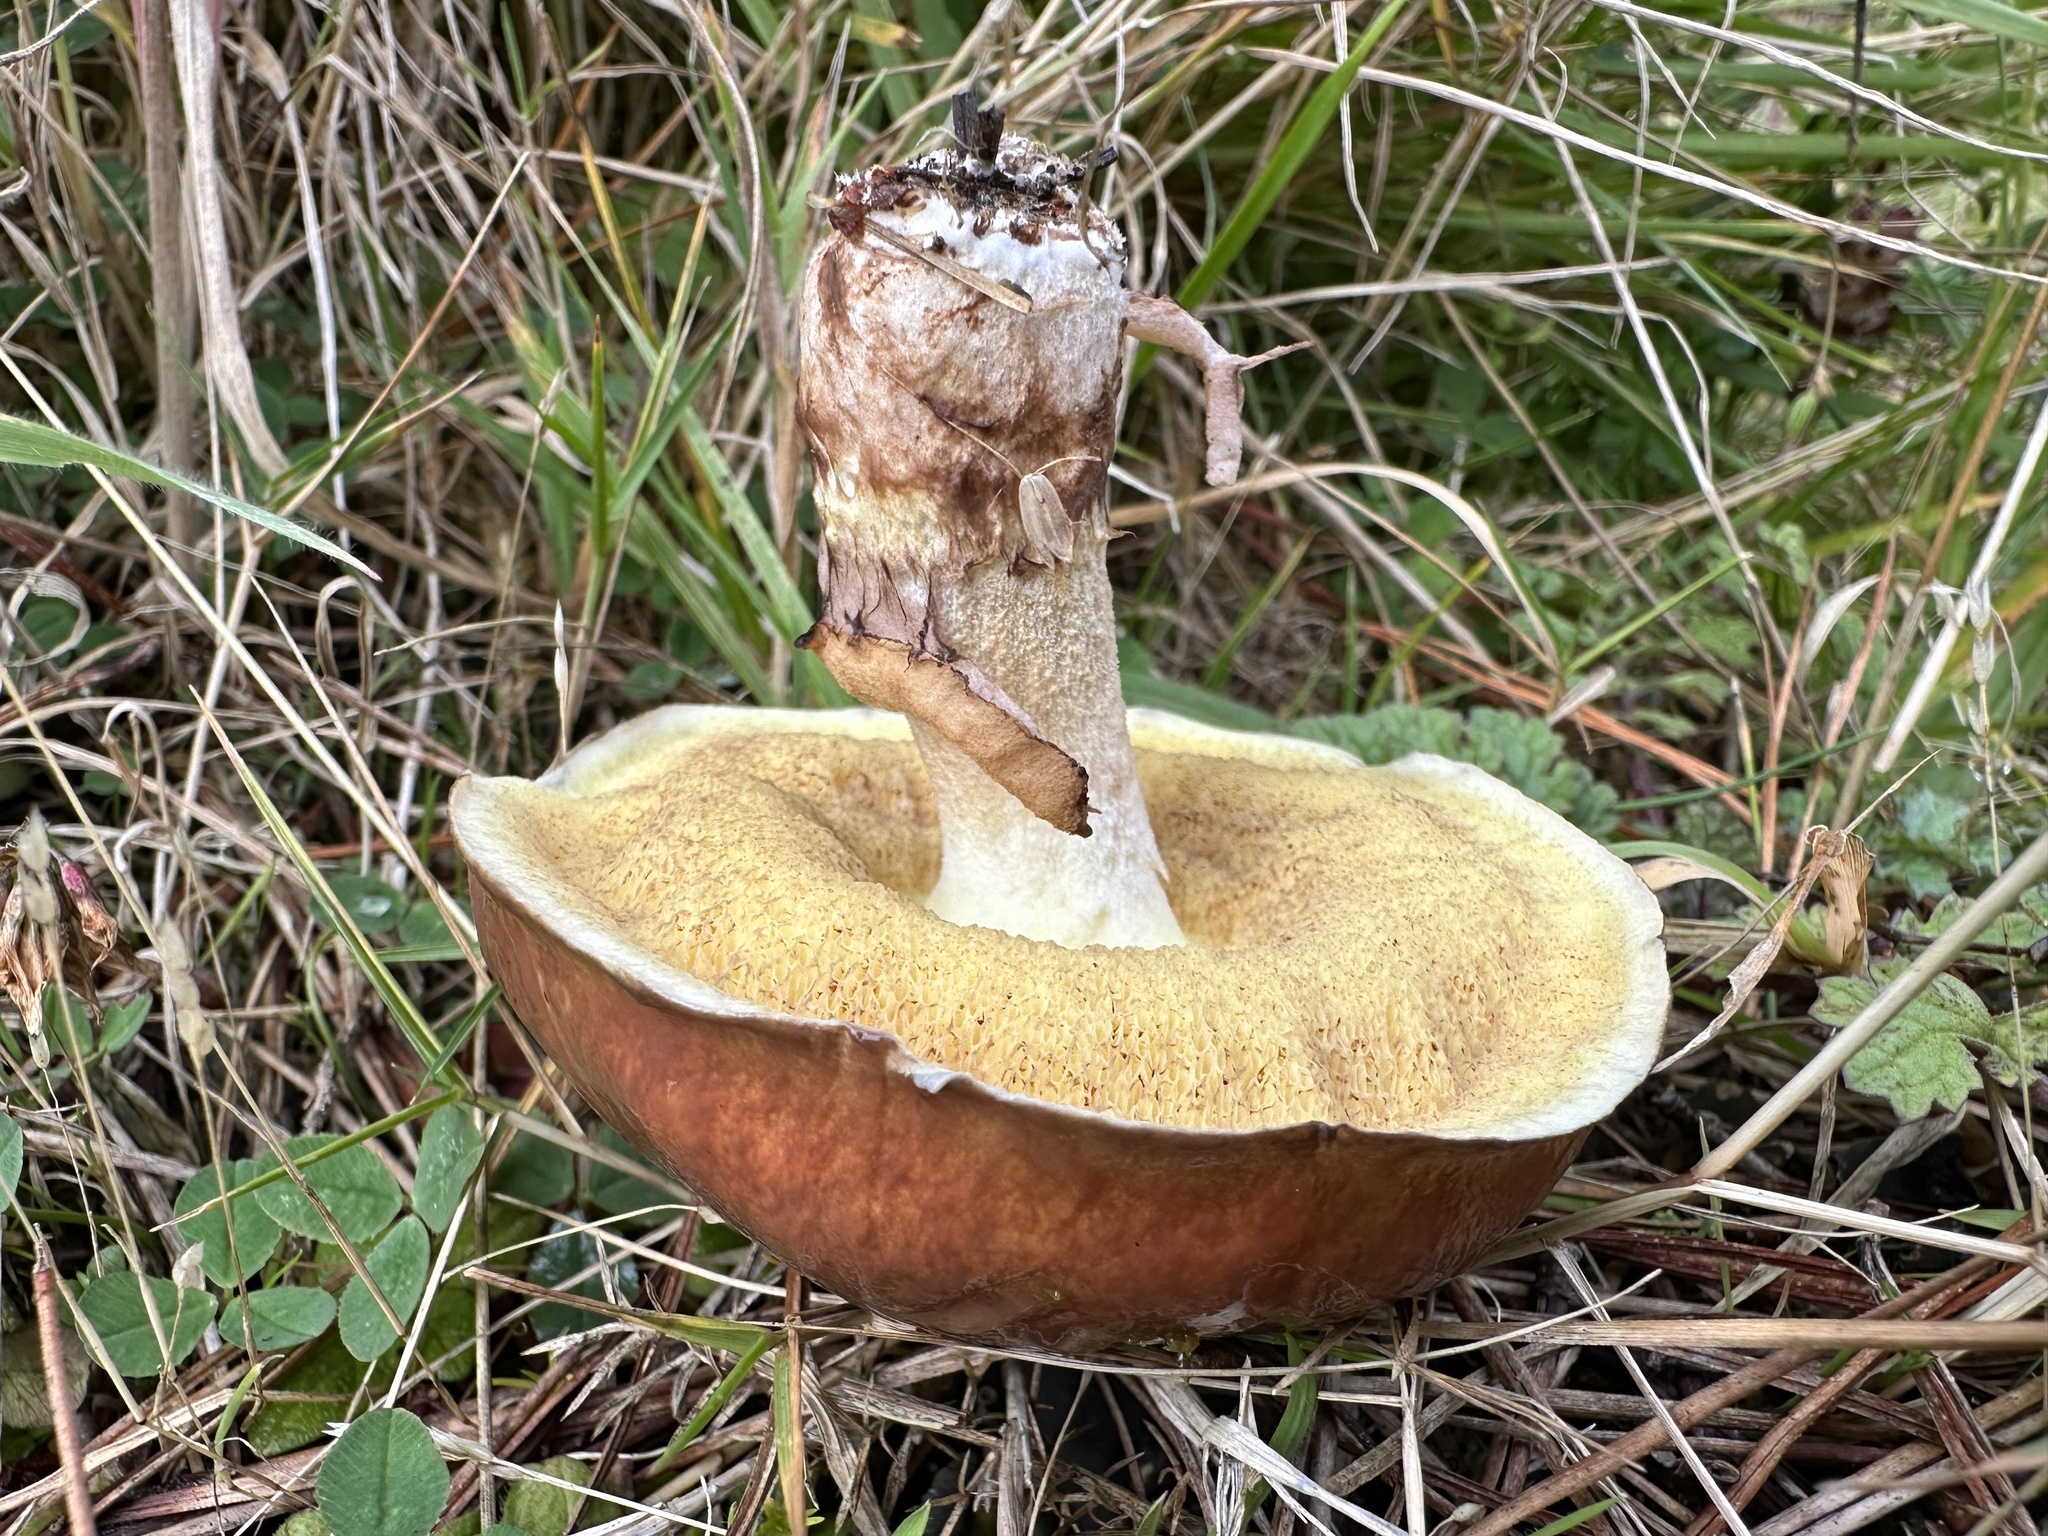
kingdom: Fungi
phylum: Basidiomycota
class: Agaricomycetes
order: Boletales
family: Suillaceae
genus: Suillus
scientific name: Suillus luteus
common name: Slippery jack
